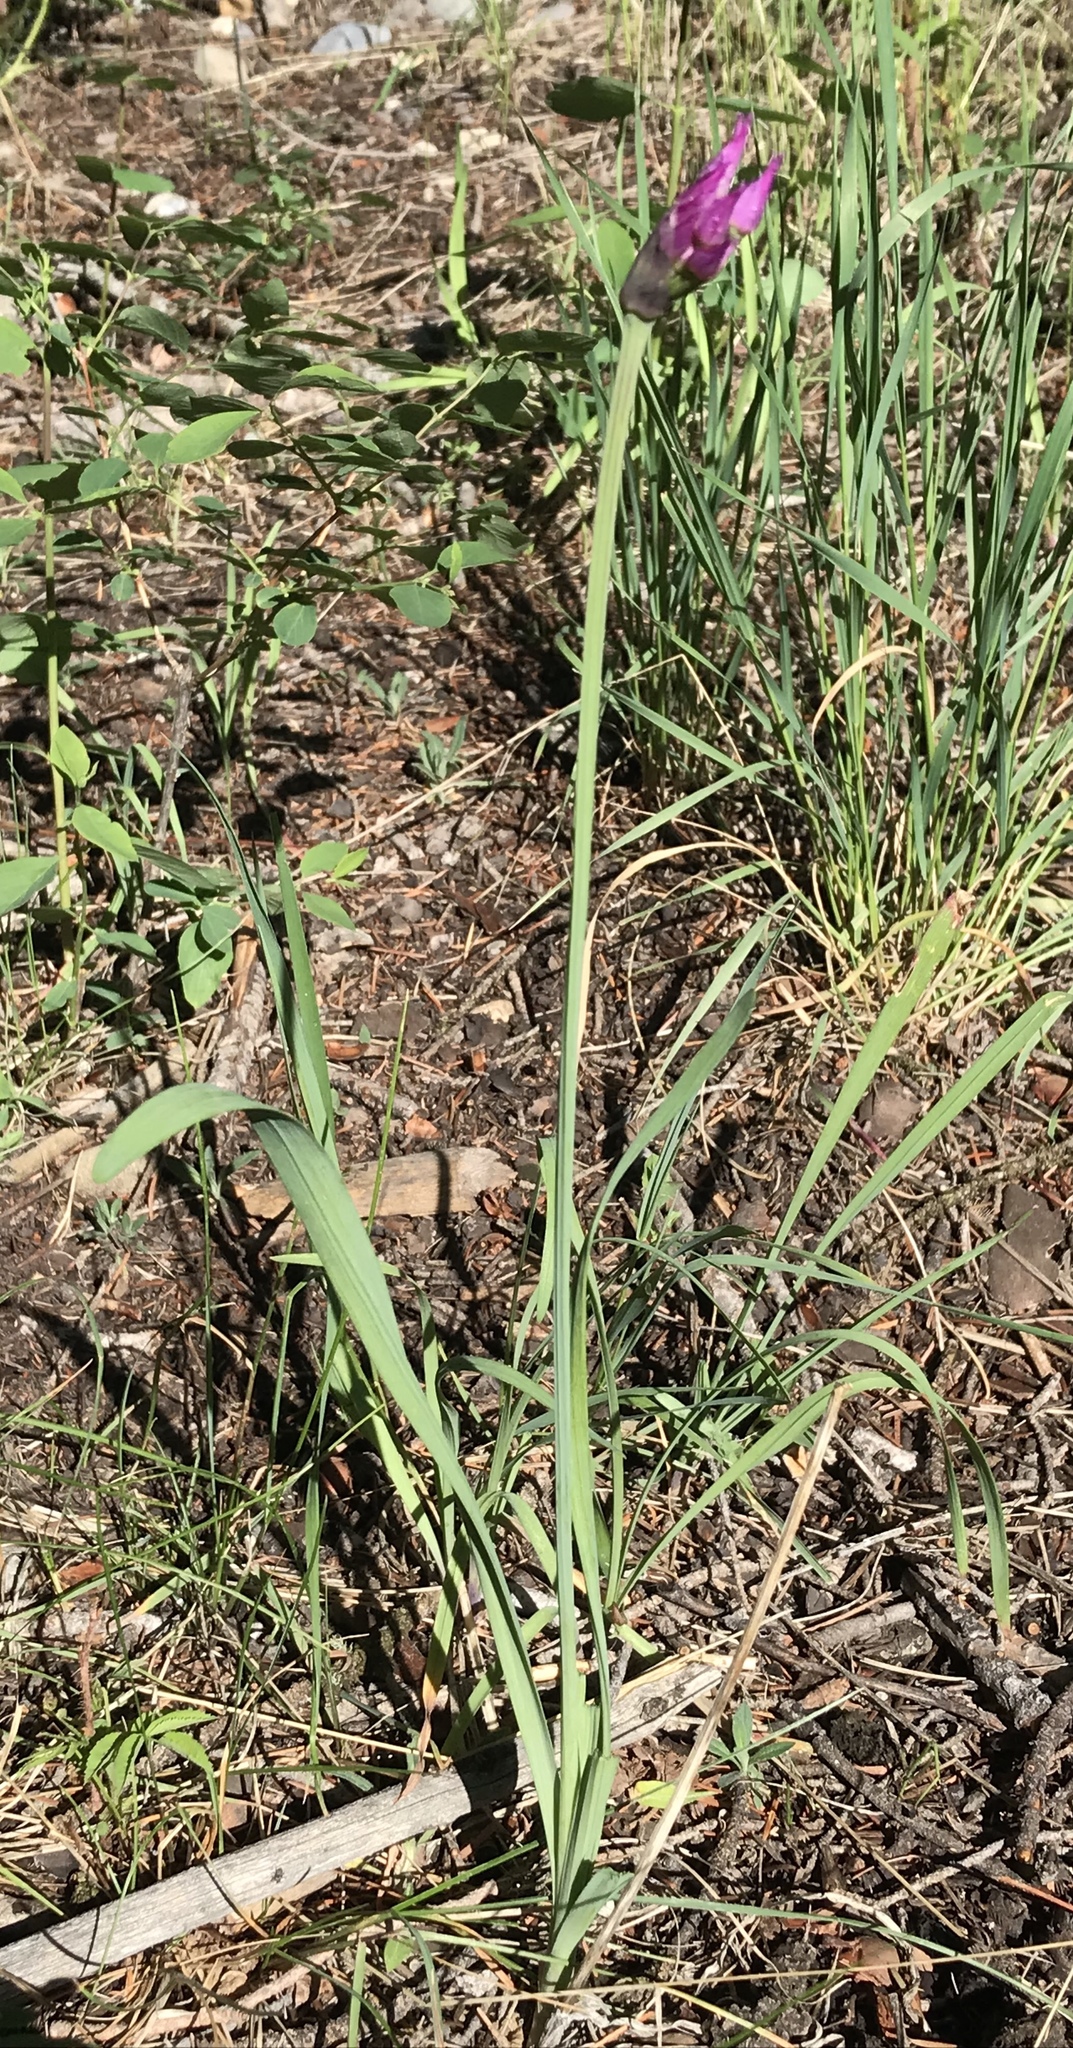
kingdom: Plantae
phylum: Tracheophyta
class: Liliopsida
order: Asparagales
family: Amaryllidaceae
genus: Allium
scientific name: Allium brevistylum
